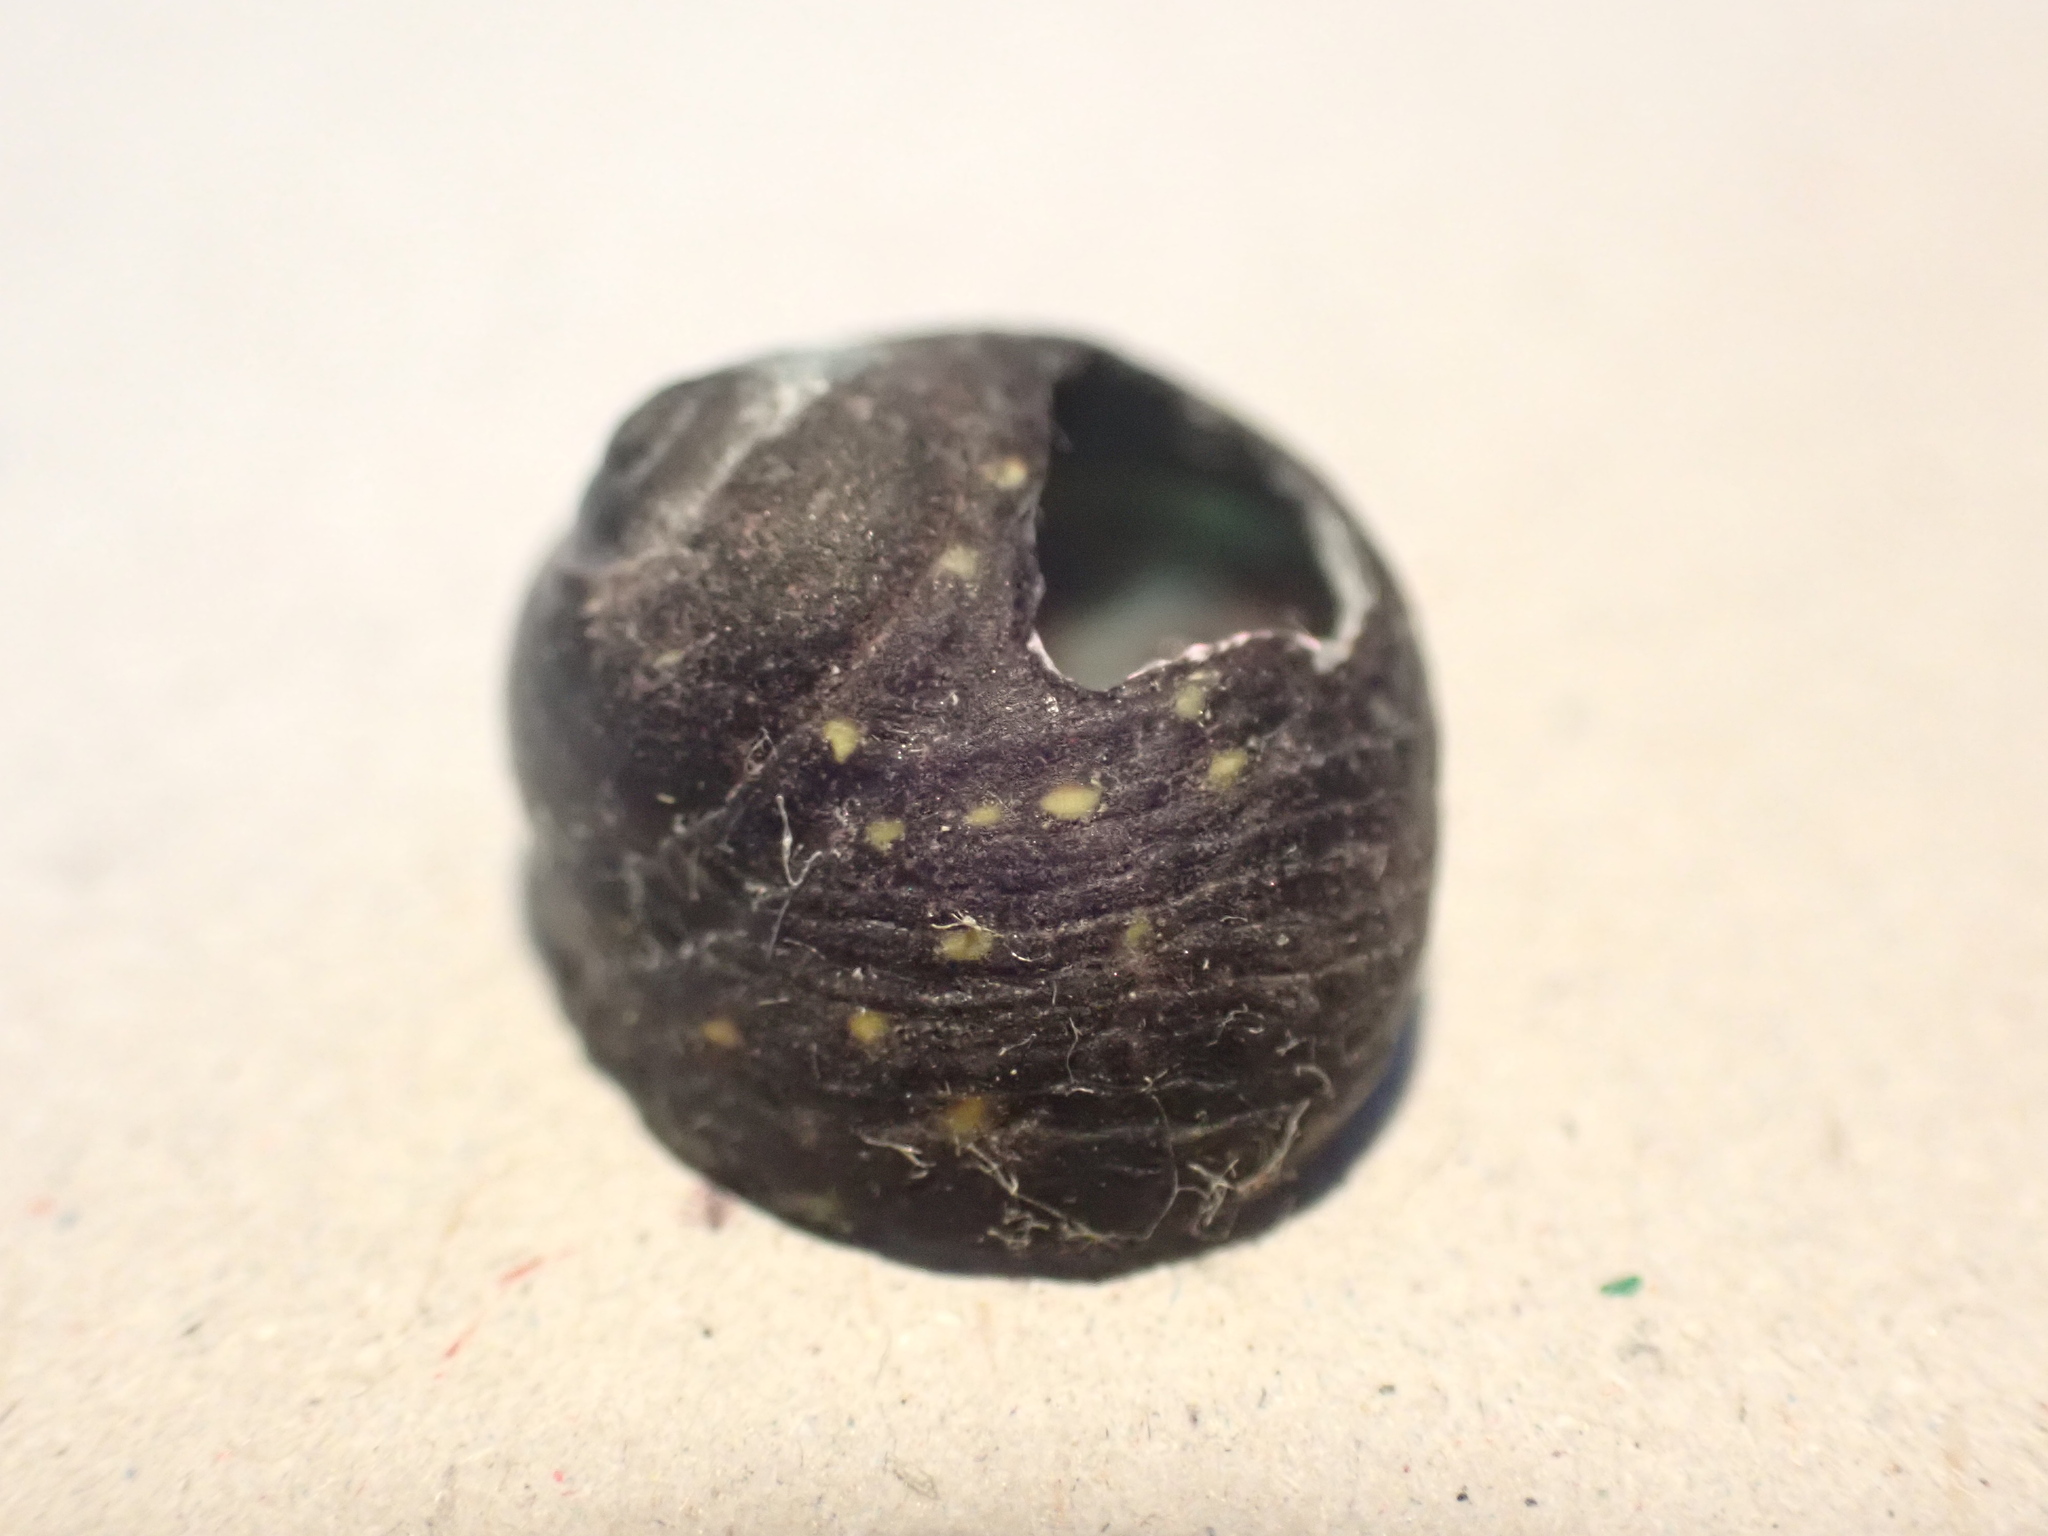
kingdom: Animalia
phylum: Mollusca
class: Gastropoda
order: Trochida
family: Trochidae
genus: Diloma
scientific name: Diloma aridum
